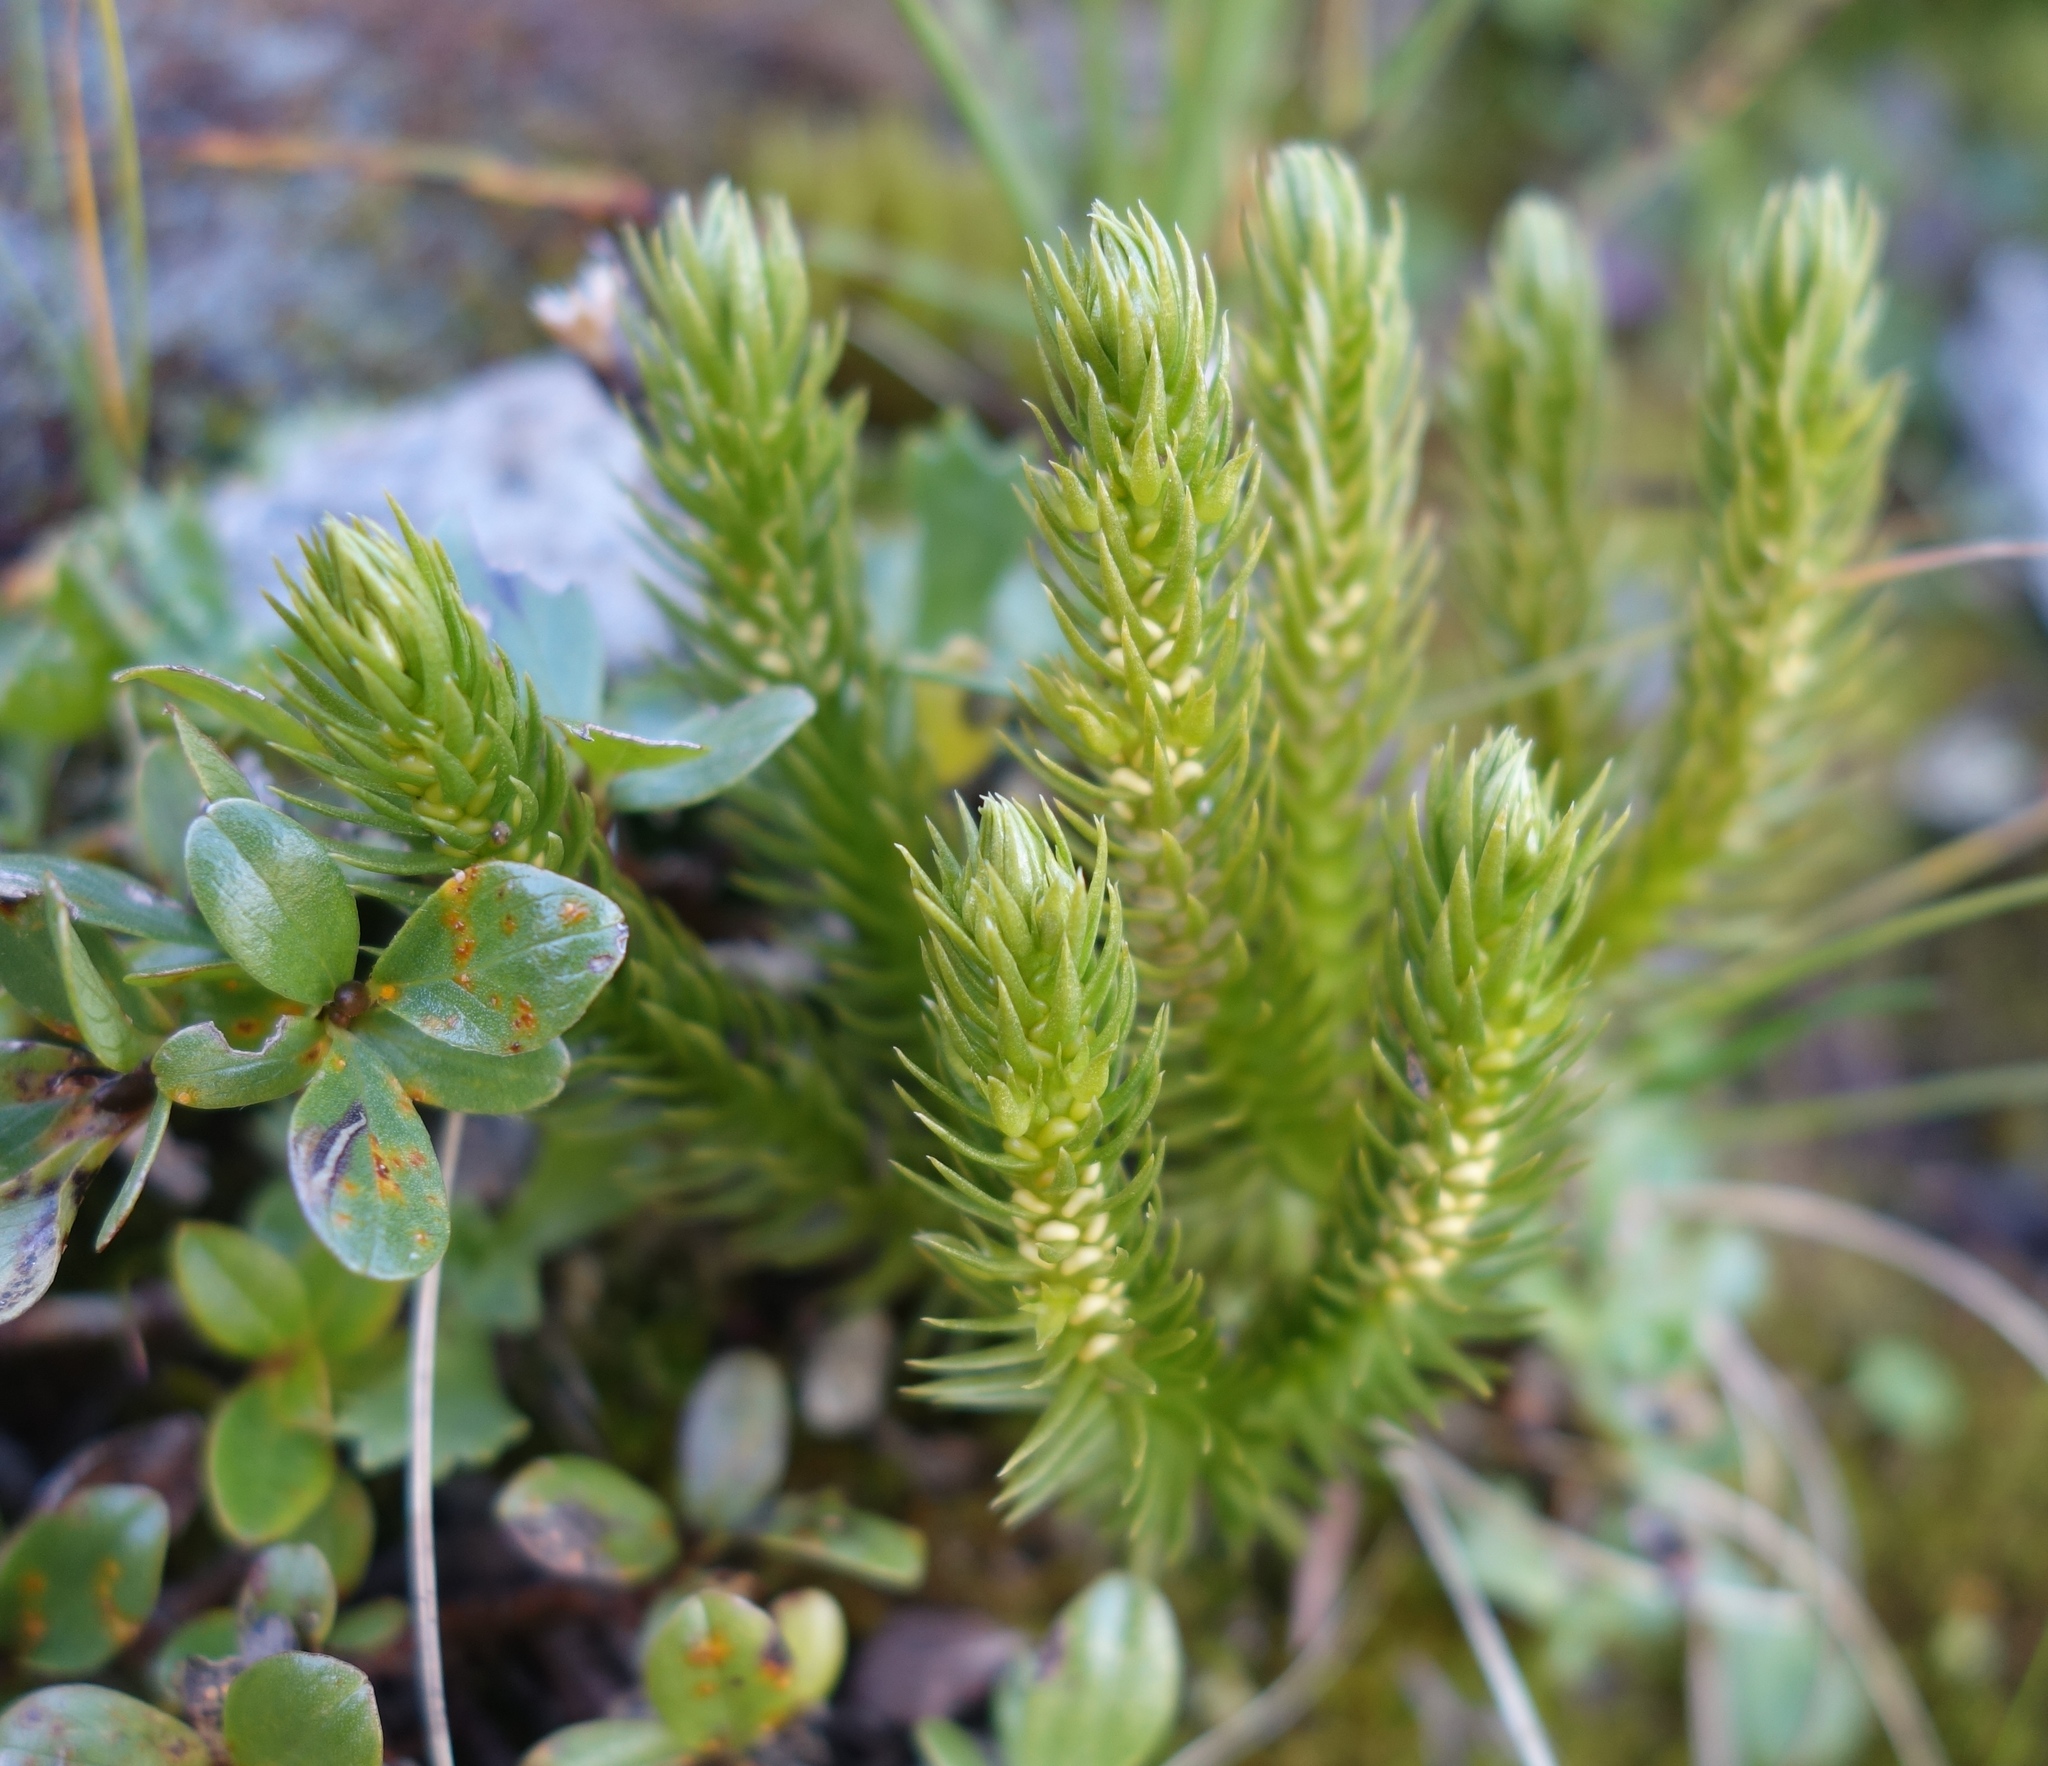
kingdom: Plantae
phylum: Tracheophyta
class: Lycopodiopsida
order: Lycopodiales
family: Lycopodiaceae
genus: Huperzia
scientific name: Huperzia selago
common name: Northern firmoss
